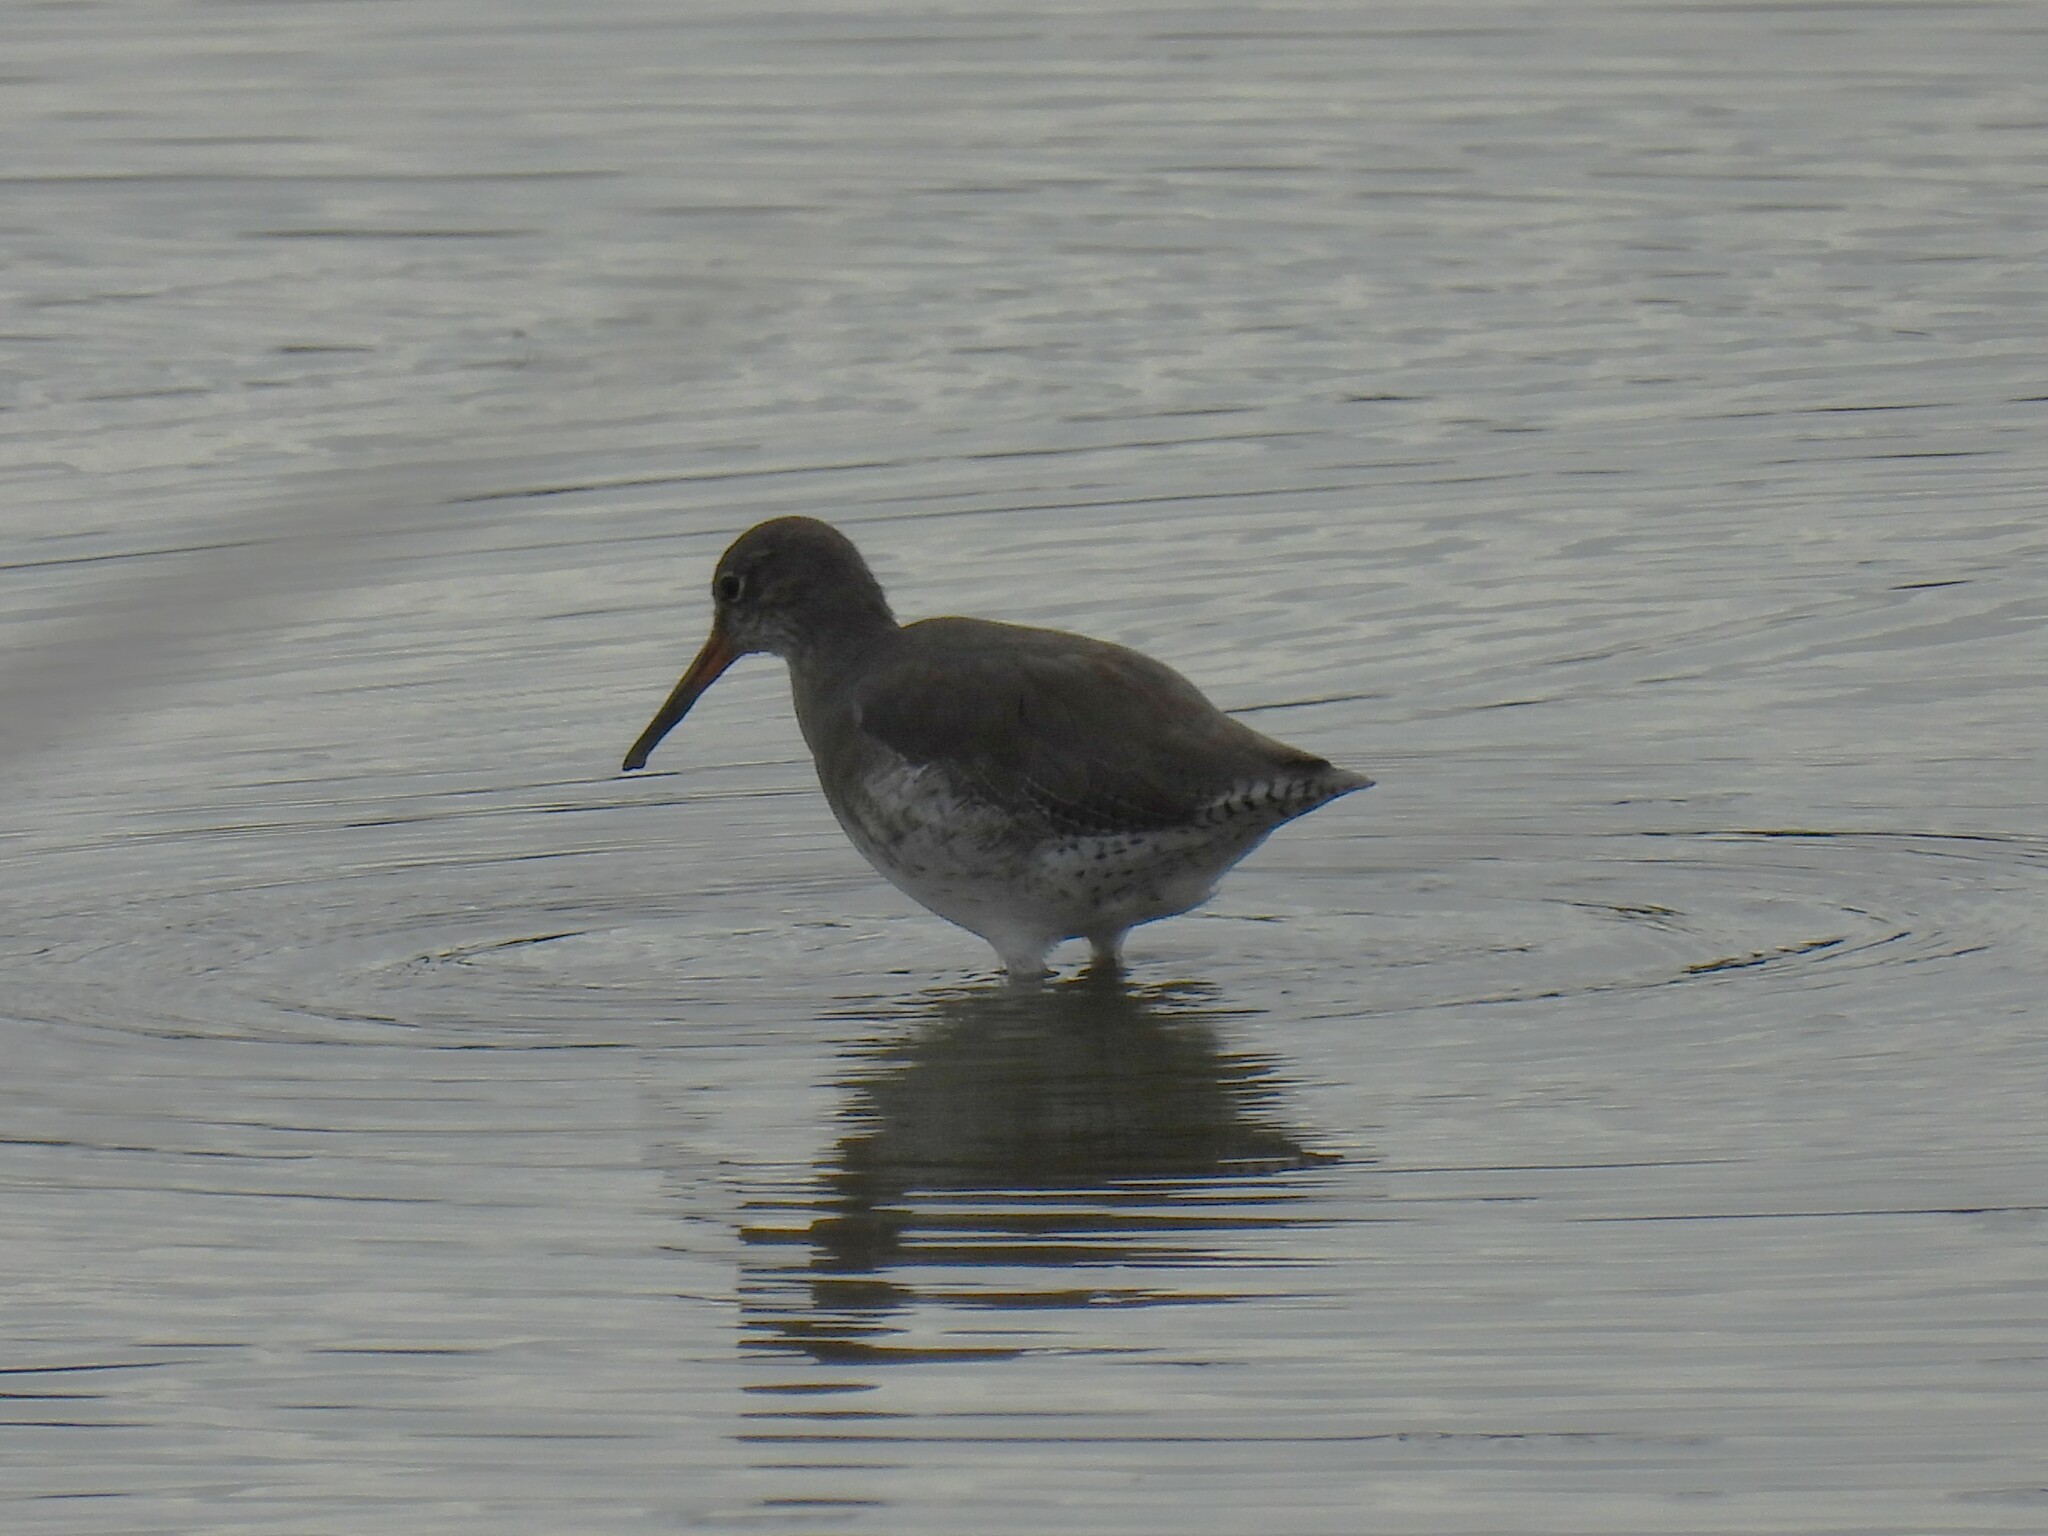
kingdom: Animalia
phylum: Chordata
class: Aves
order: Charadriiformes
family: Scolopacidae
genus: Tringa
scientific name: Tringa totanus
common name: Common redshank
